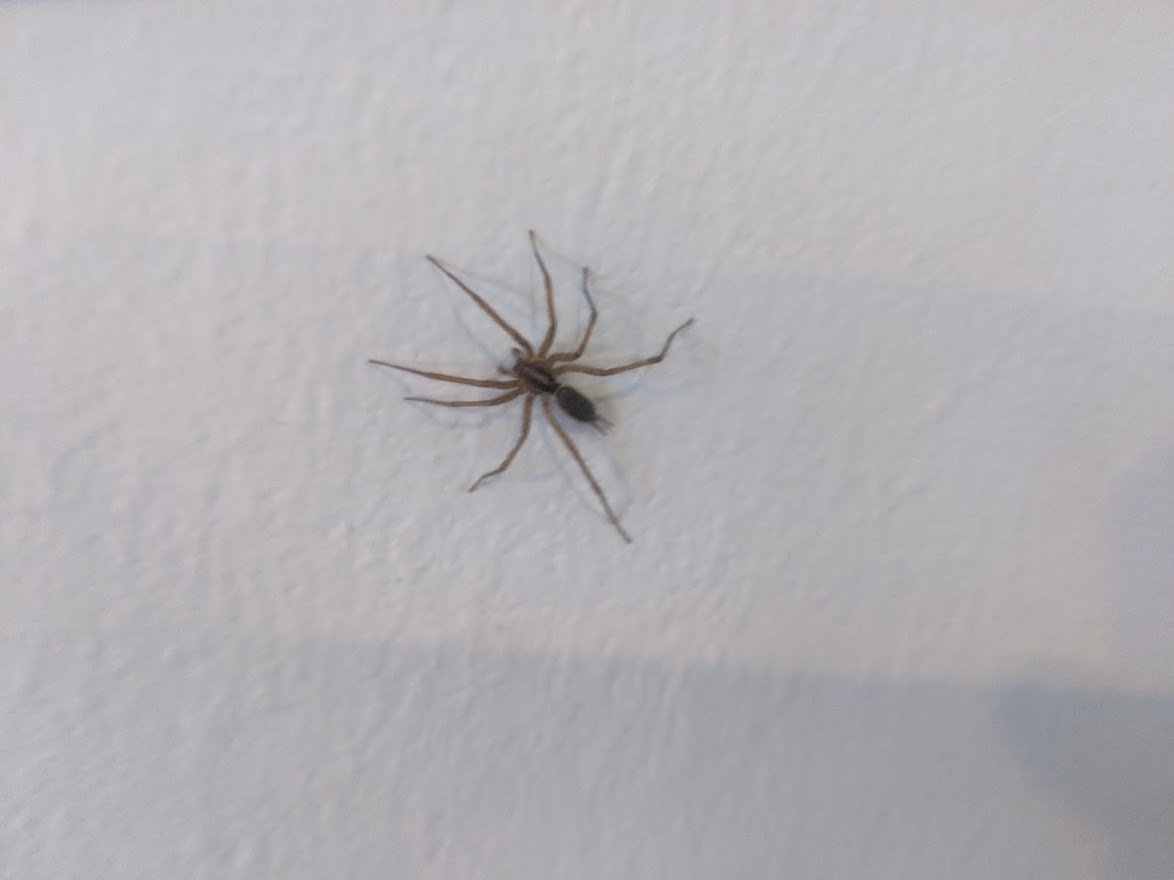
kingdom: Animalia
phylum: Arthropoda
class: Arachnida
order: Araneae
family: Agelenidae
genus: Agelenopsis
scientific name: Agelenopsis
